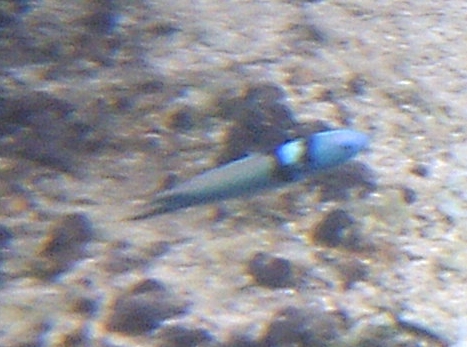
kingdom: Animalia
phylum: Chordata
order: Perciformes
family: Labridae
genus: Thalassoma
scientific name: Thalassoma bifasciatum
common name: Bluehead wrasse
